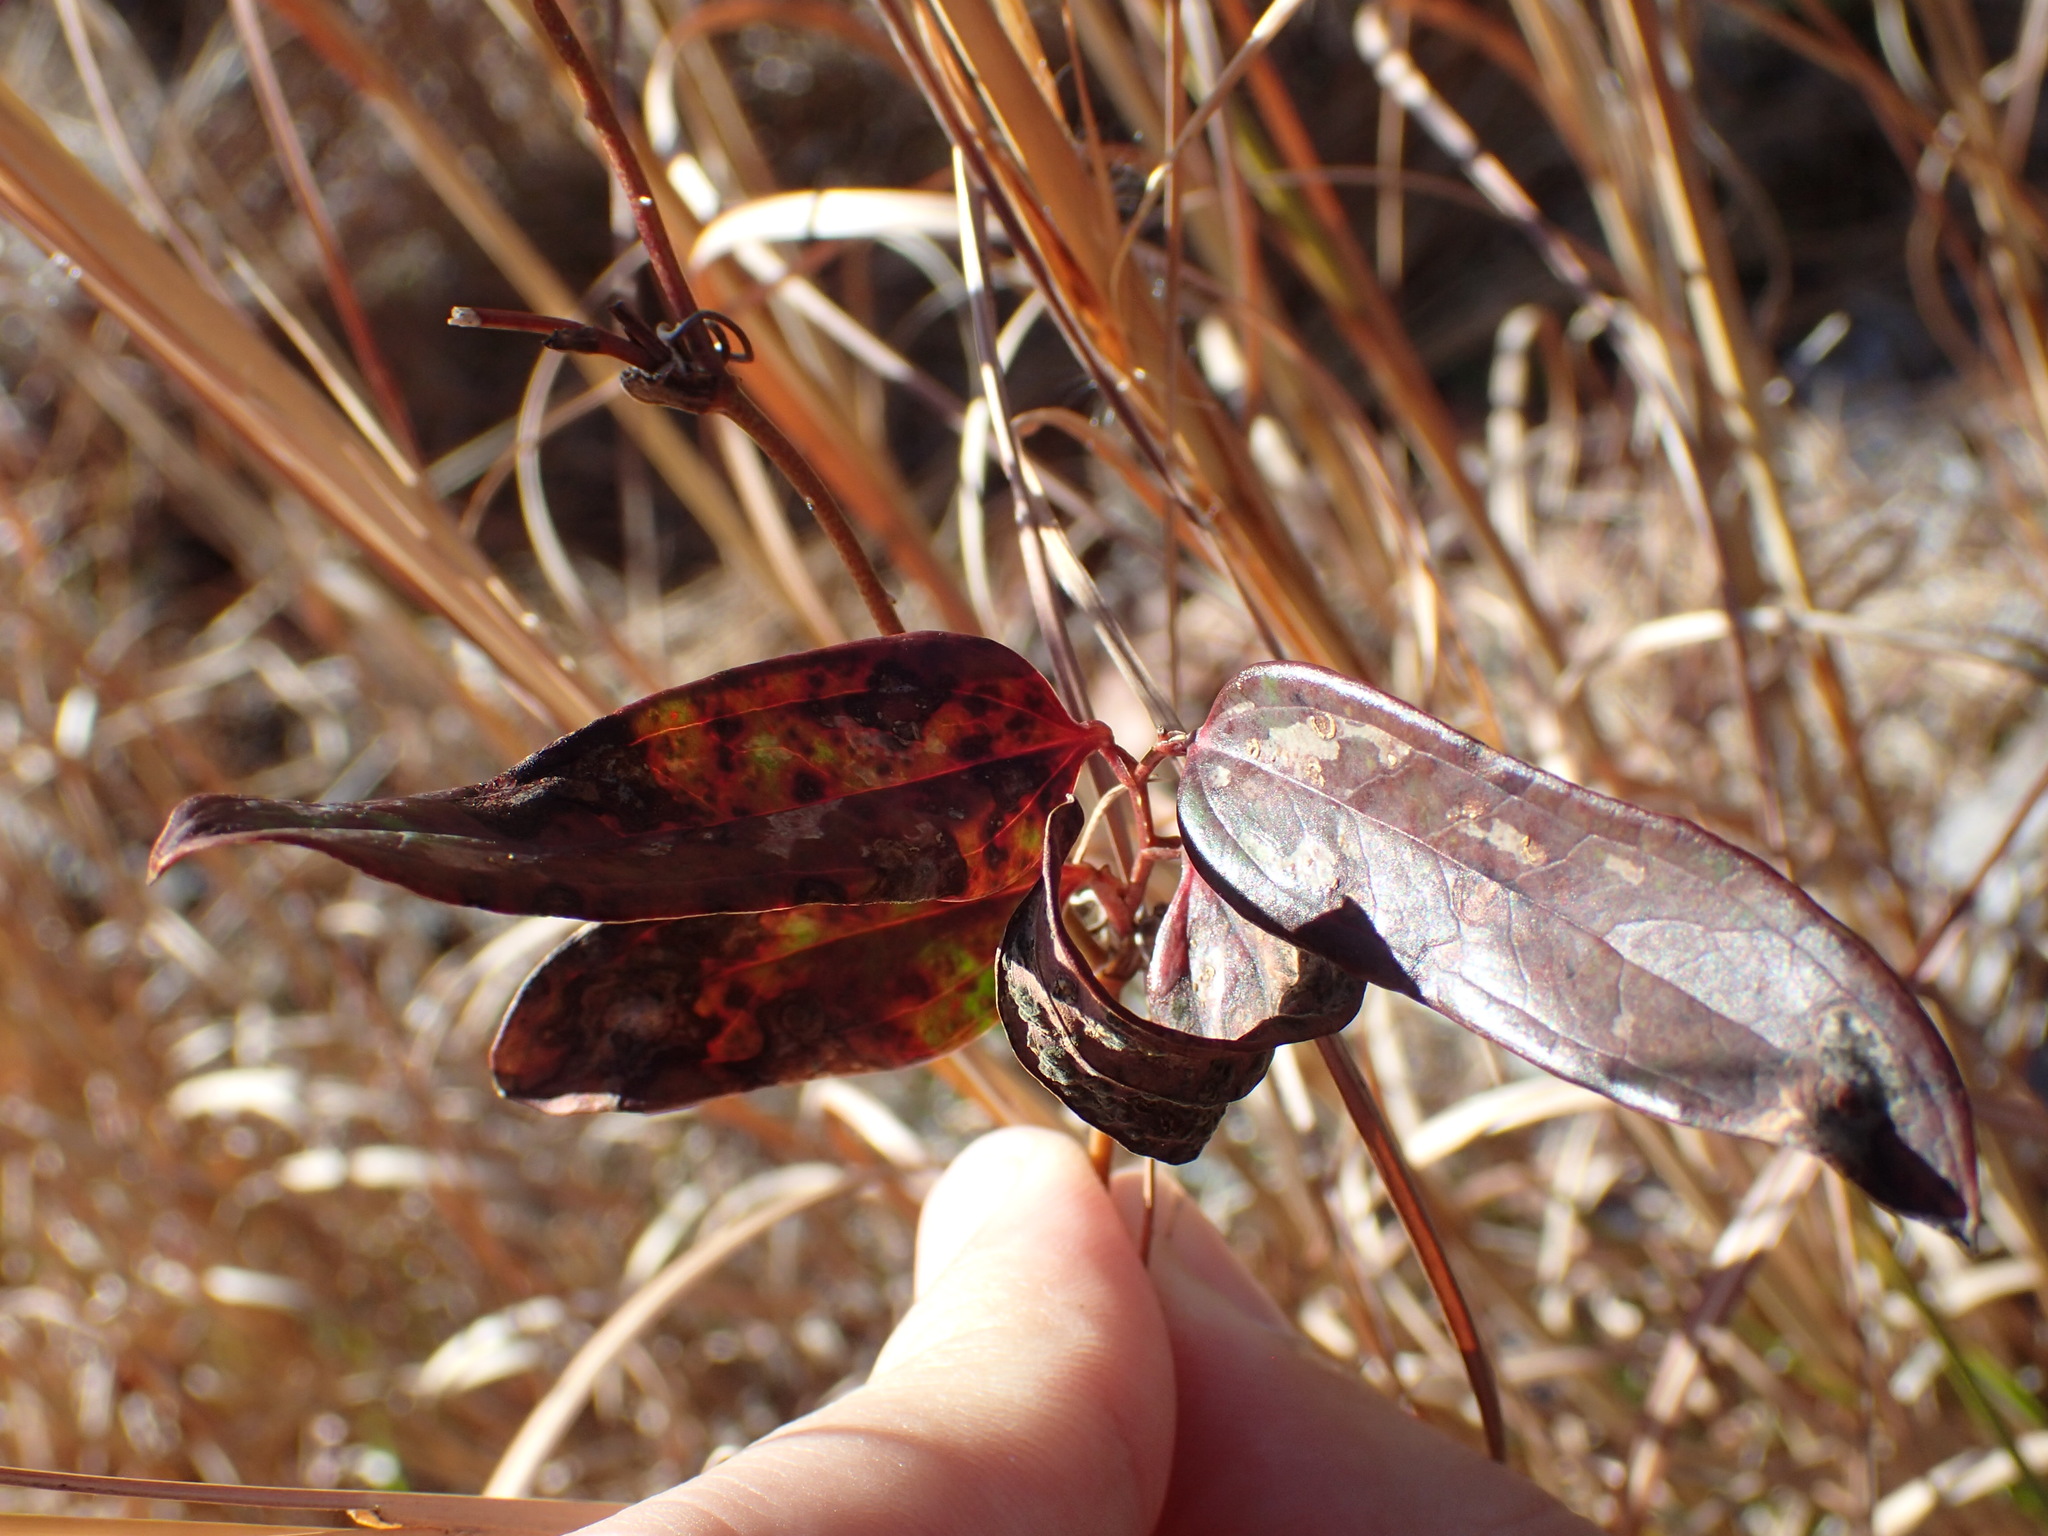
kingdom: Plantae
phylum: Tracheophyta
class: Liliopsida
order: Liliales
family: Smilacaceae
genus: Smilax
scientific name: Smilax glauca
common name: Cat greenbrier
